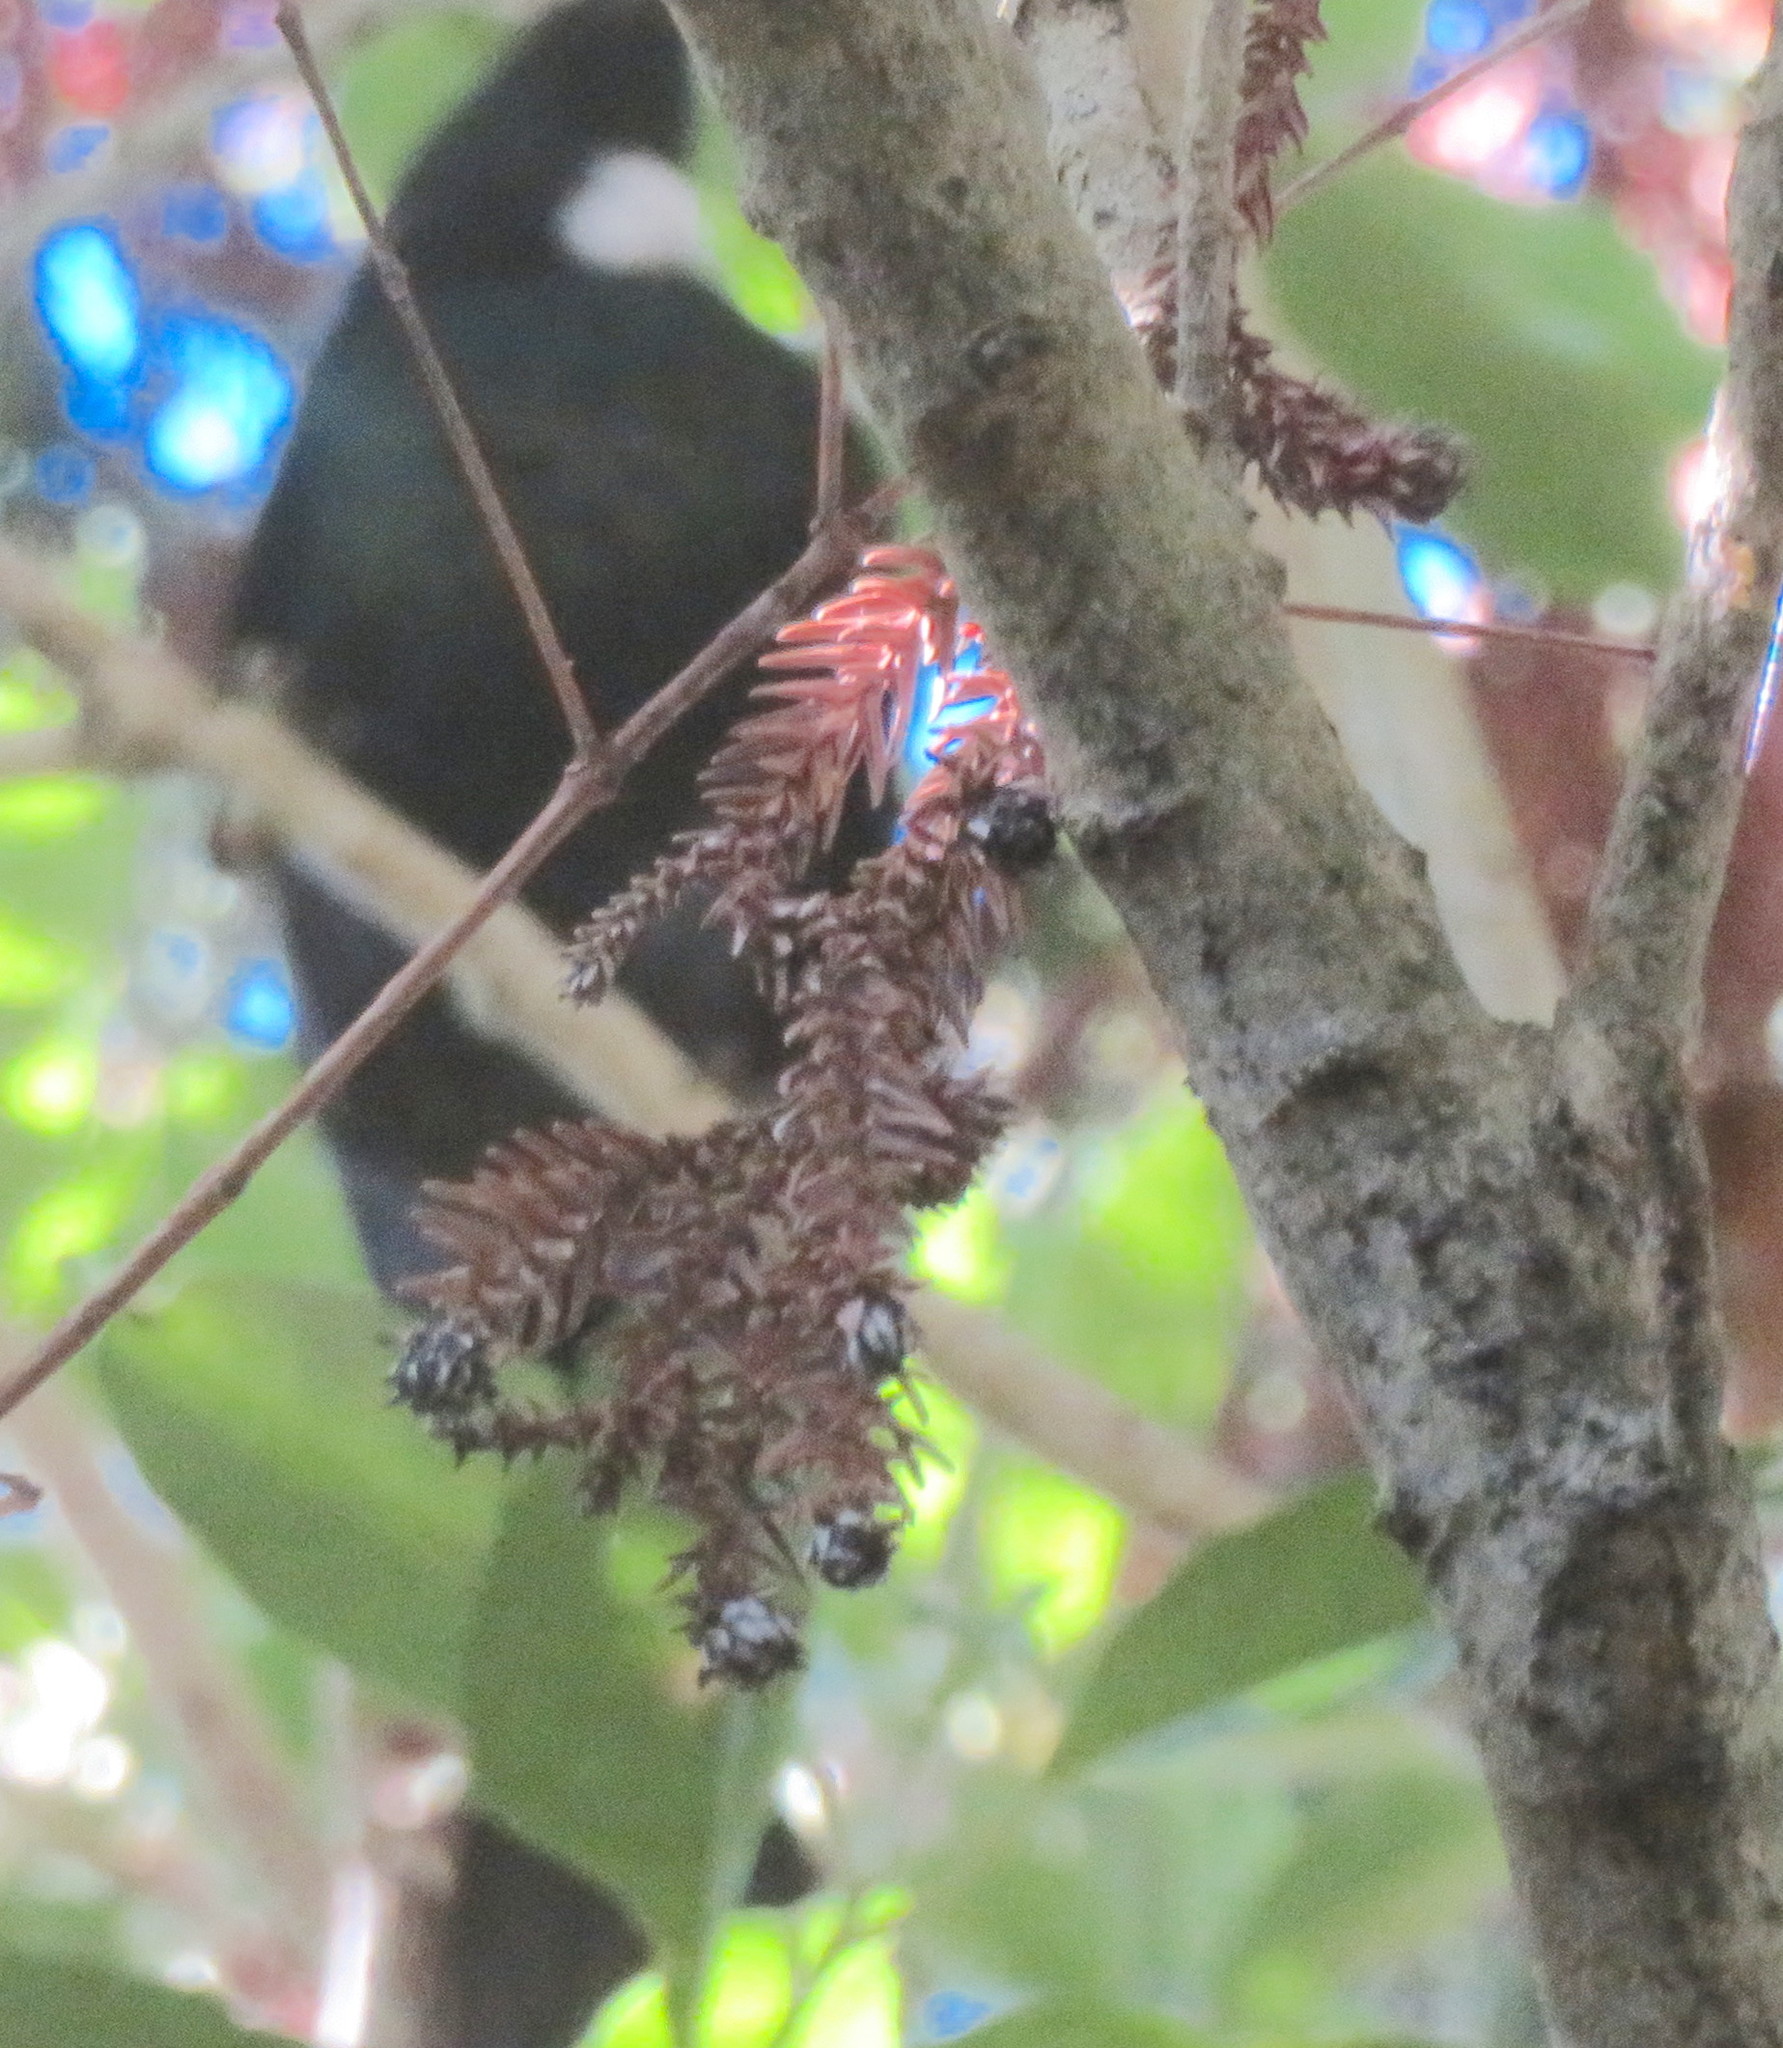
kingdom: Plantae
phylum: Tracheophyta
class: Pinopsida
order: Pinales
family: Cupressaceae
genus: Cryptomeria
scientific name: Cryptomeria japonica
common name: Japanese cedar
